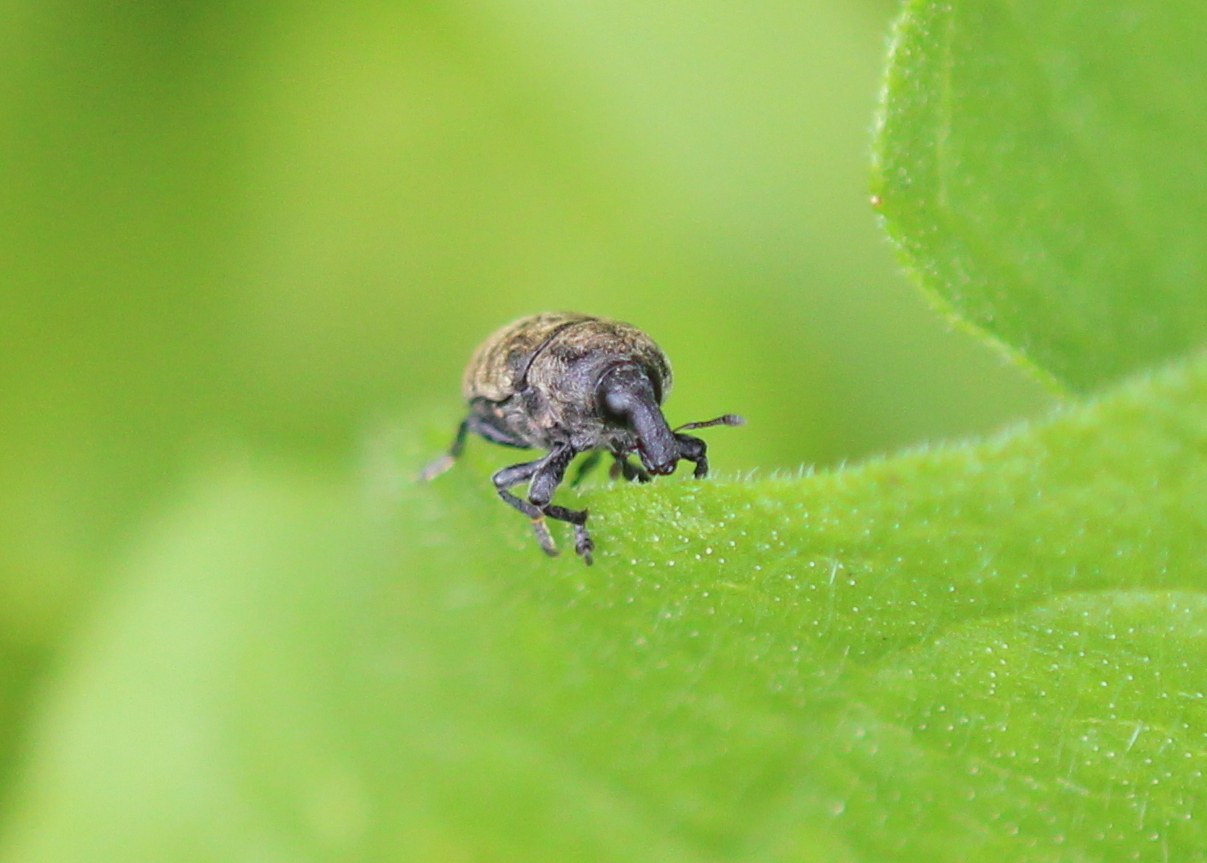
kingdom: Animalia
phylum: Arthropoda
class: Insecta
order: Coleoptera
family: Curculionidae
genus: Larinus
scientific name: Larinus obtusus
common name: Weevil
